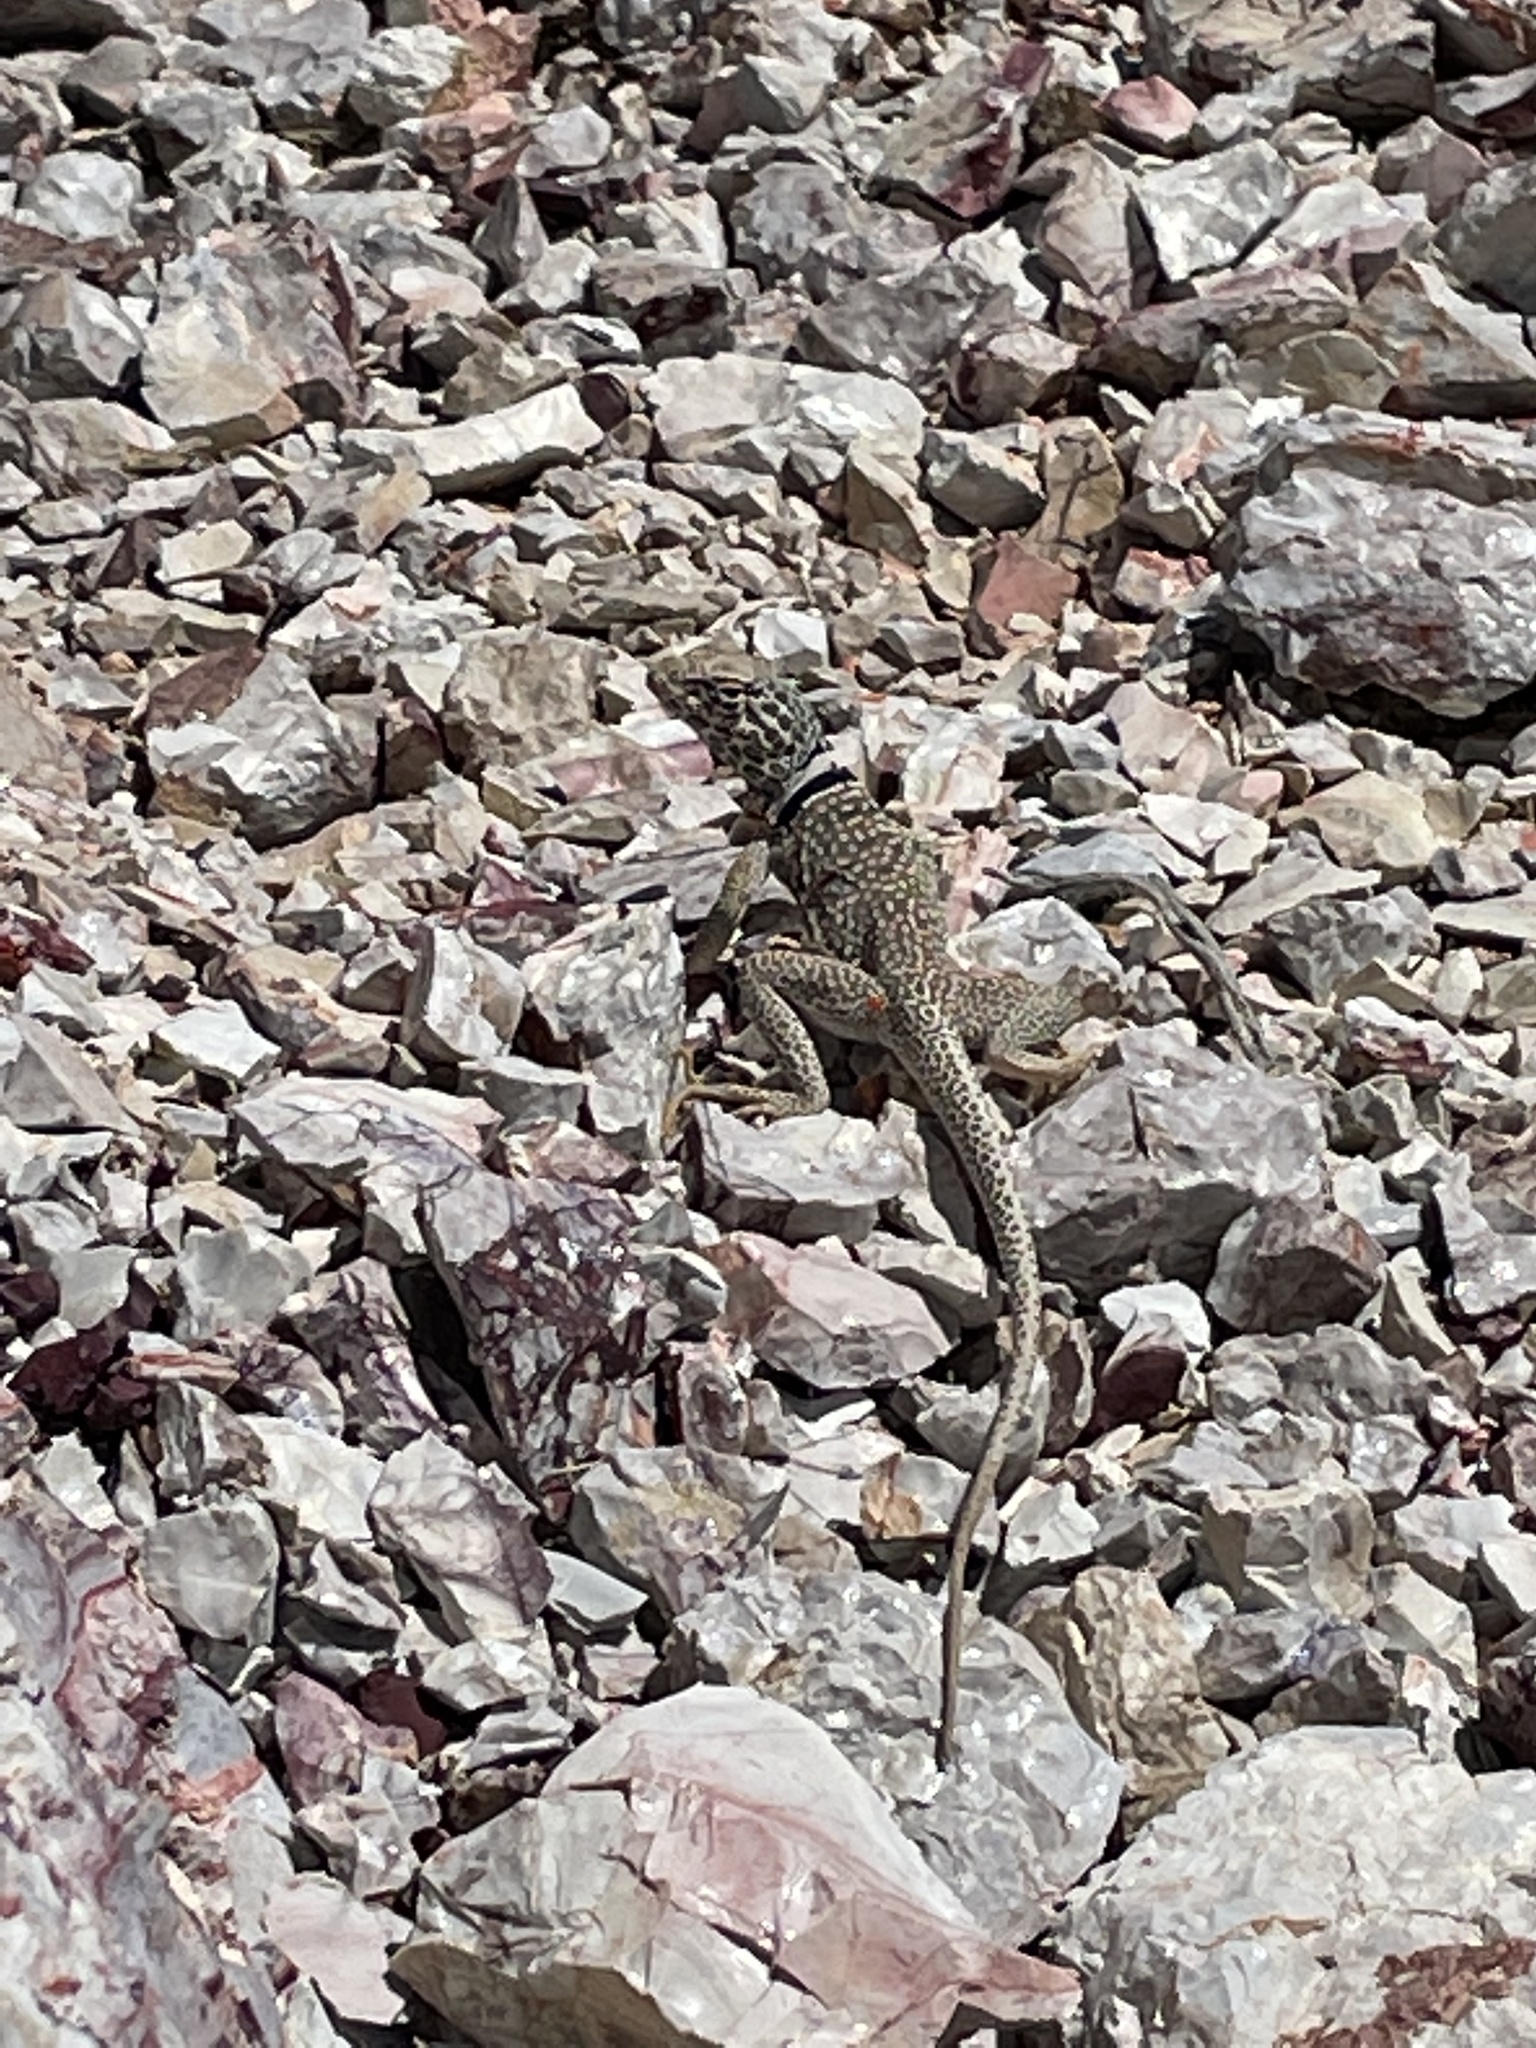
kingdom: Animalia
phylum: Chordata
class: Squamata
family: Crotaphytidae
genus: Crotaphytus
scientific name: Crotaphytus bicinctores
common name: Mojave black-collared lizard
